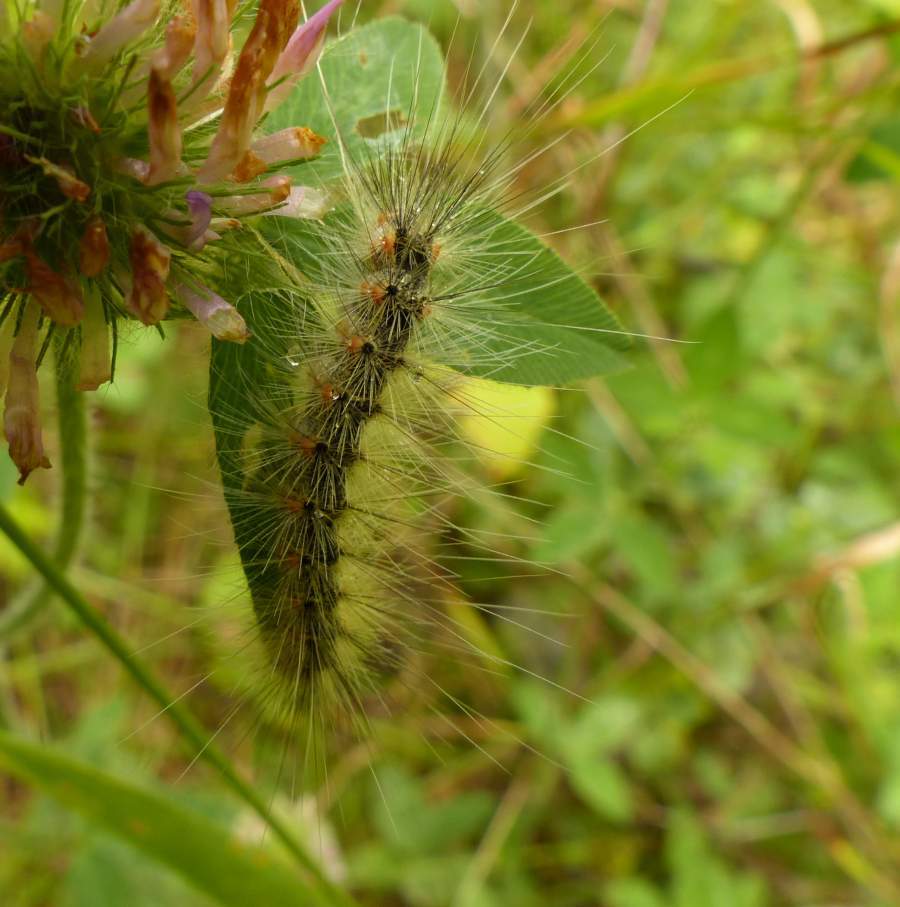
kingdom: Animalia
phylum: Arthropoda
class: Insecta
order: Lepidoptera
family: Erebidae
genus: Hyphantria
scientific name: Hyphantria cunea
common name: American white moth
